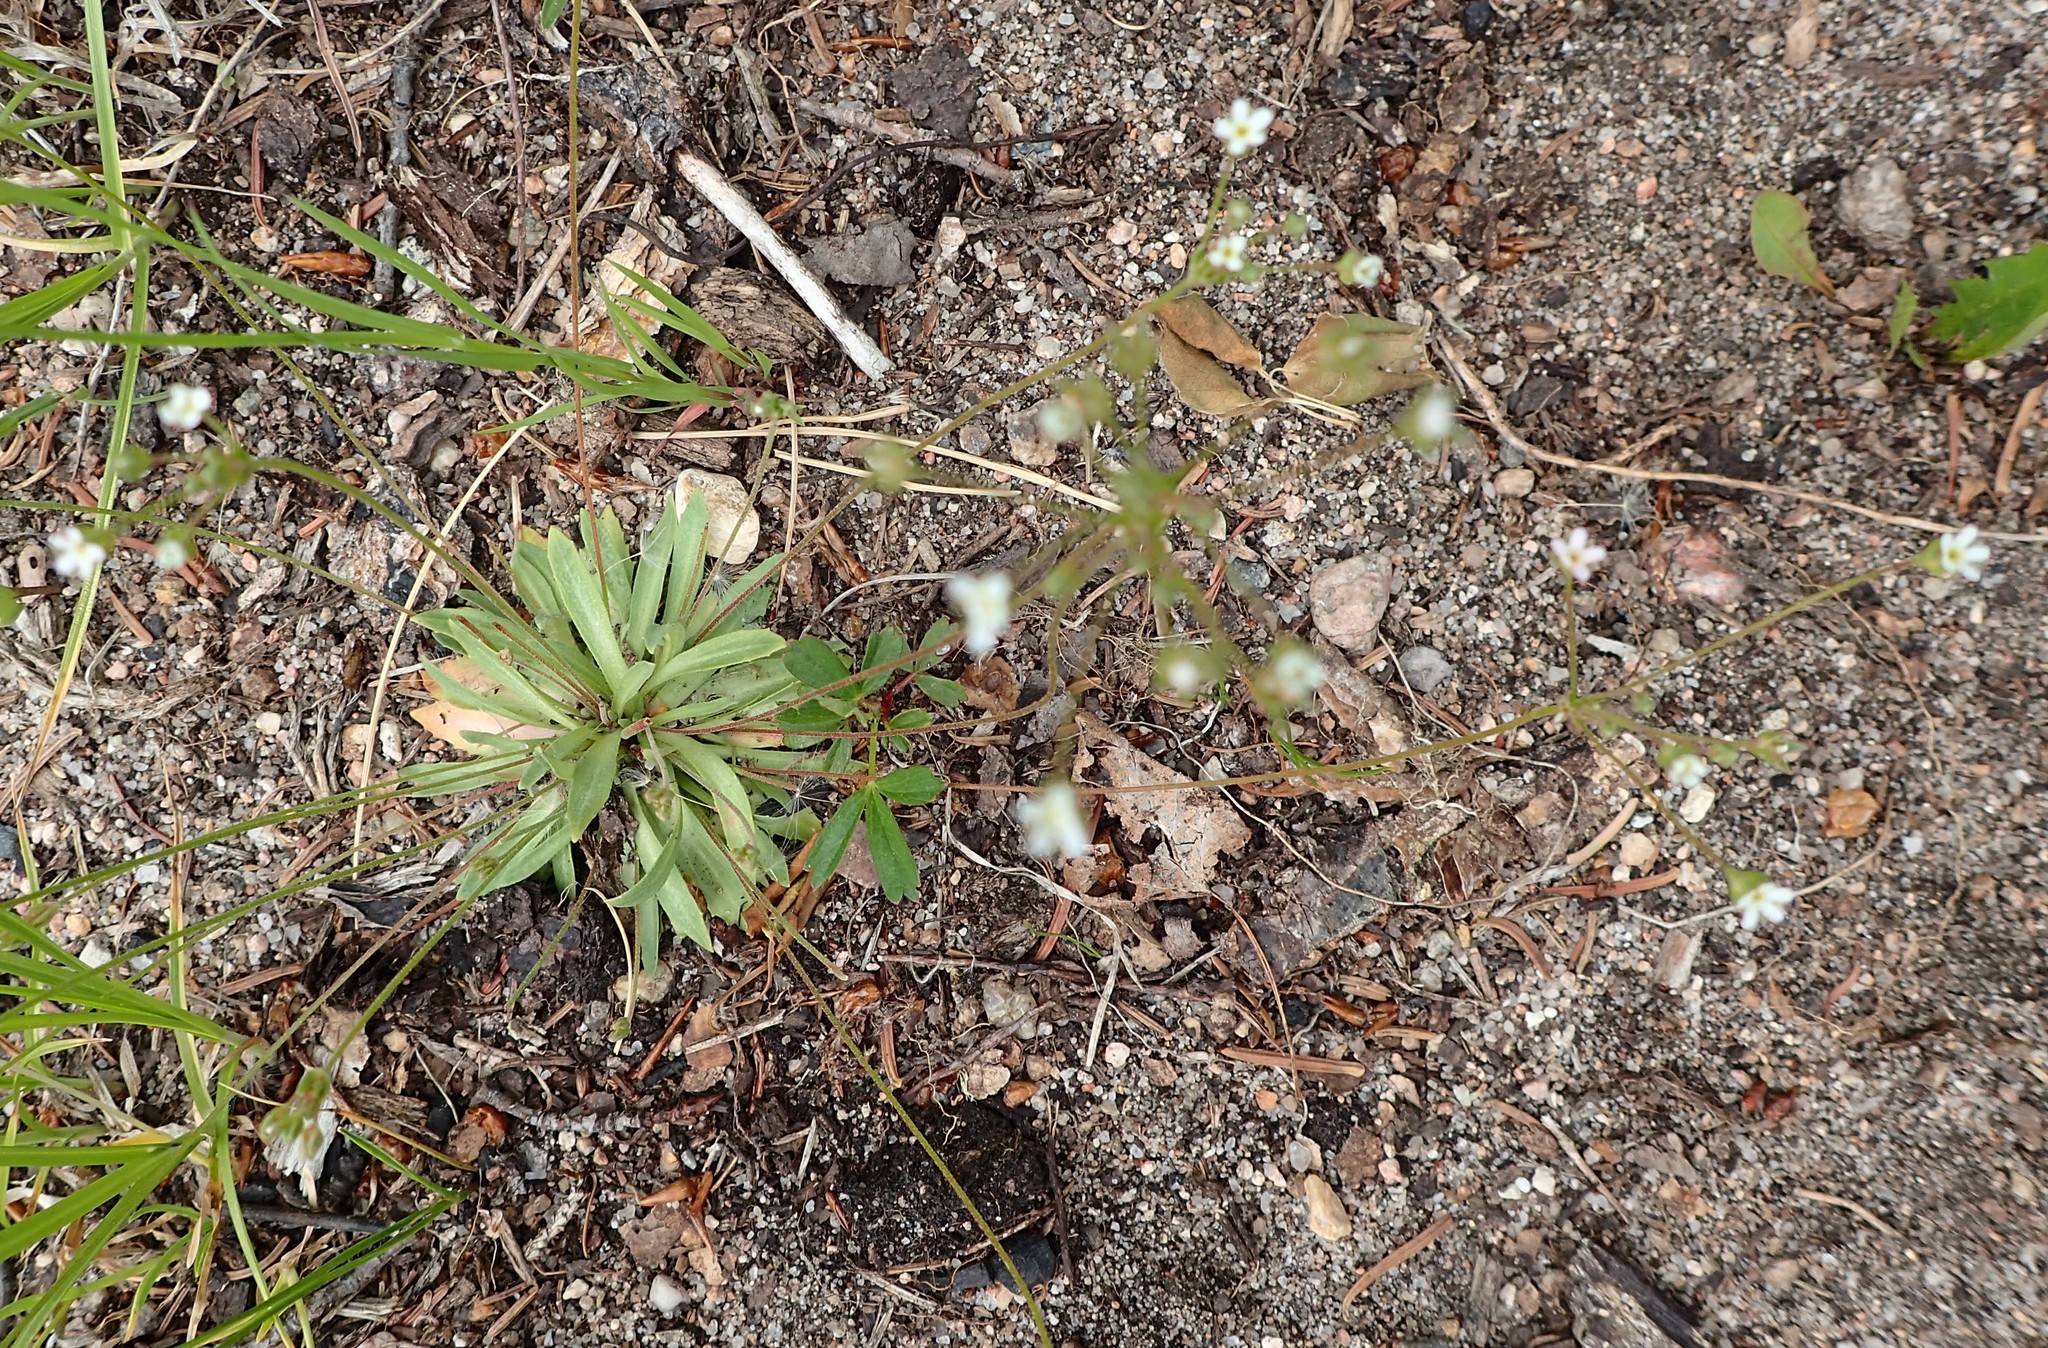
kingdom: Plantae
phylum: Tracheophyta
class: Magnoliopsida
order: Ericales
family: Primulaceae
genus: Androsace
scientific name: Androsace septentrionalis
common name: Hairy northern fairy-candelabra
